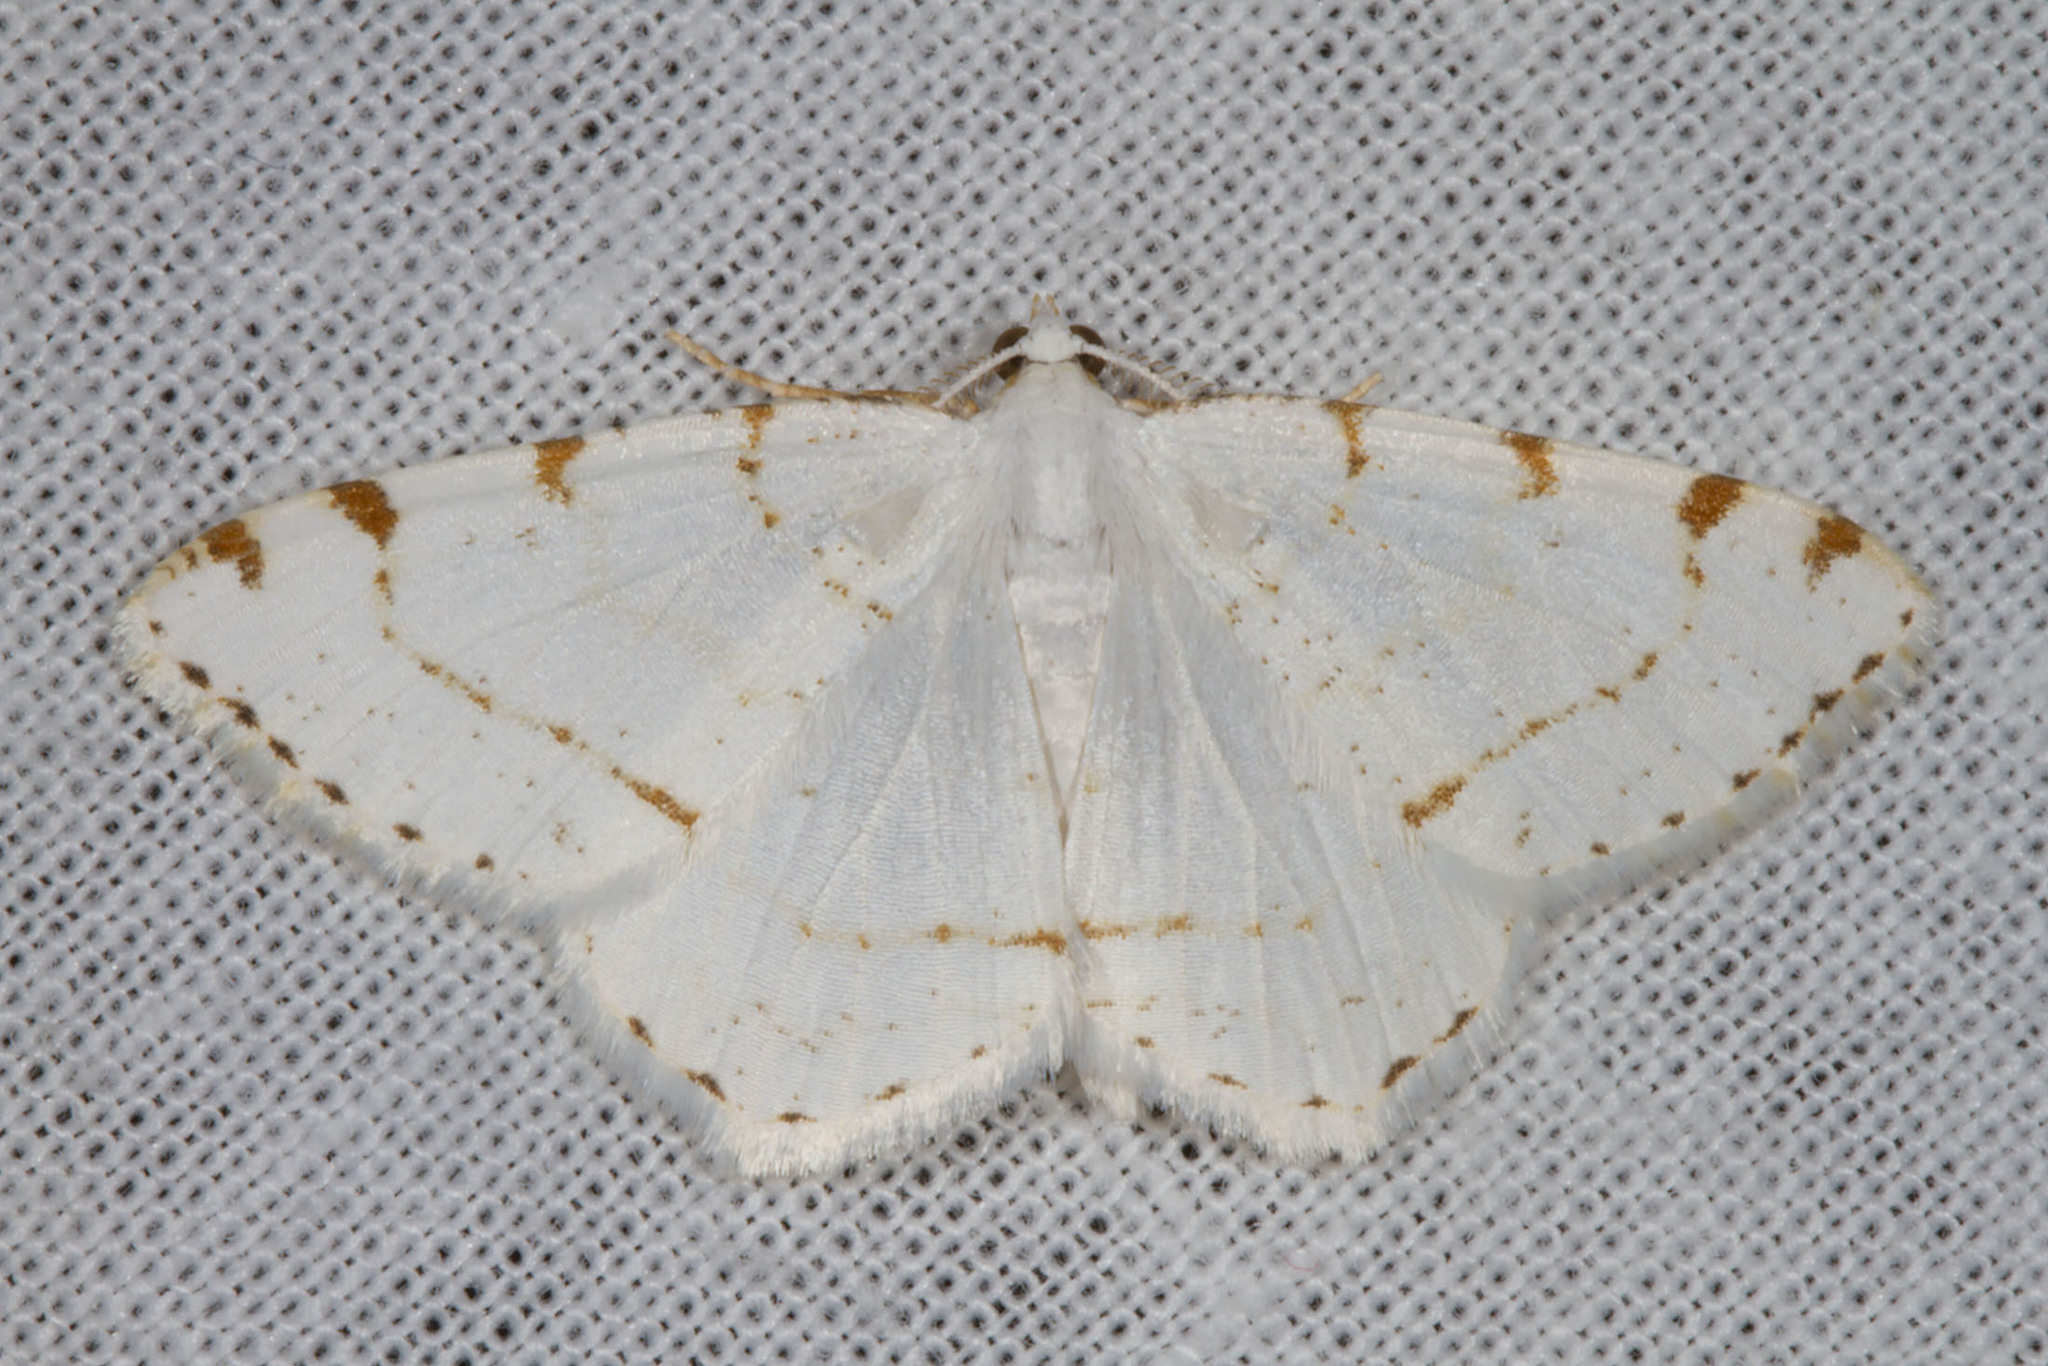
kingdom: Animalia
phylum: Arthropoda
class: Insecta
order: Lepidoptera
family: Geometridae
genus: Macaria
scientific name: Macaria pustularia
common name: Lesser maple spanworm moth
